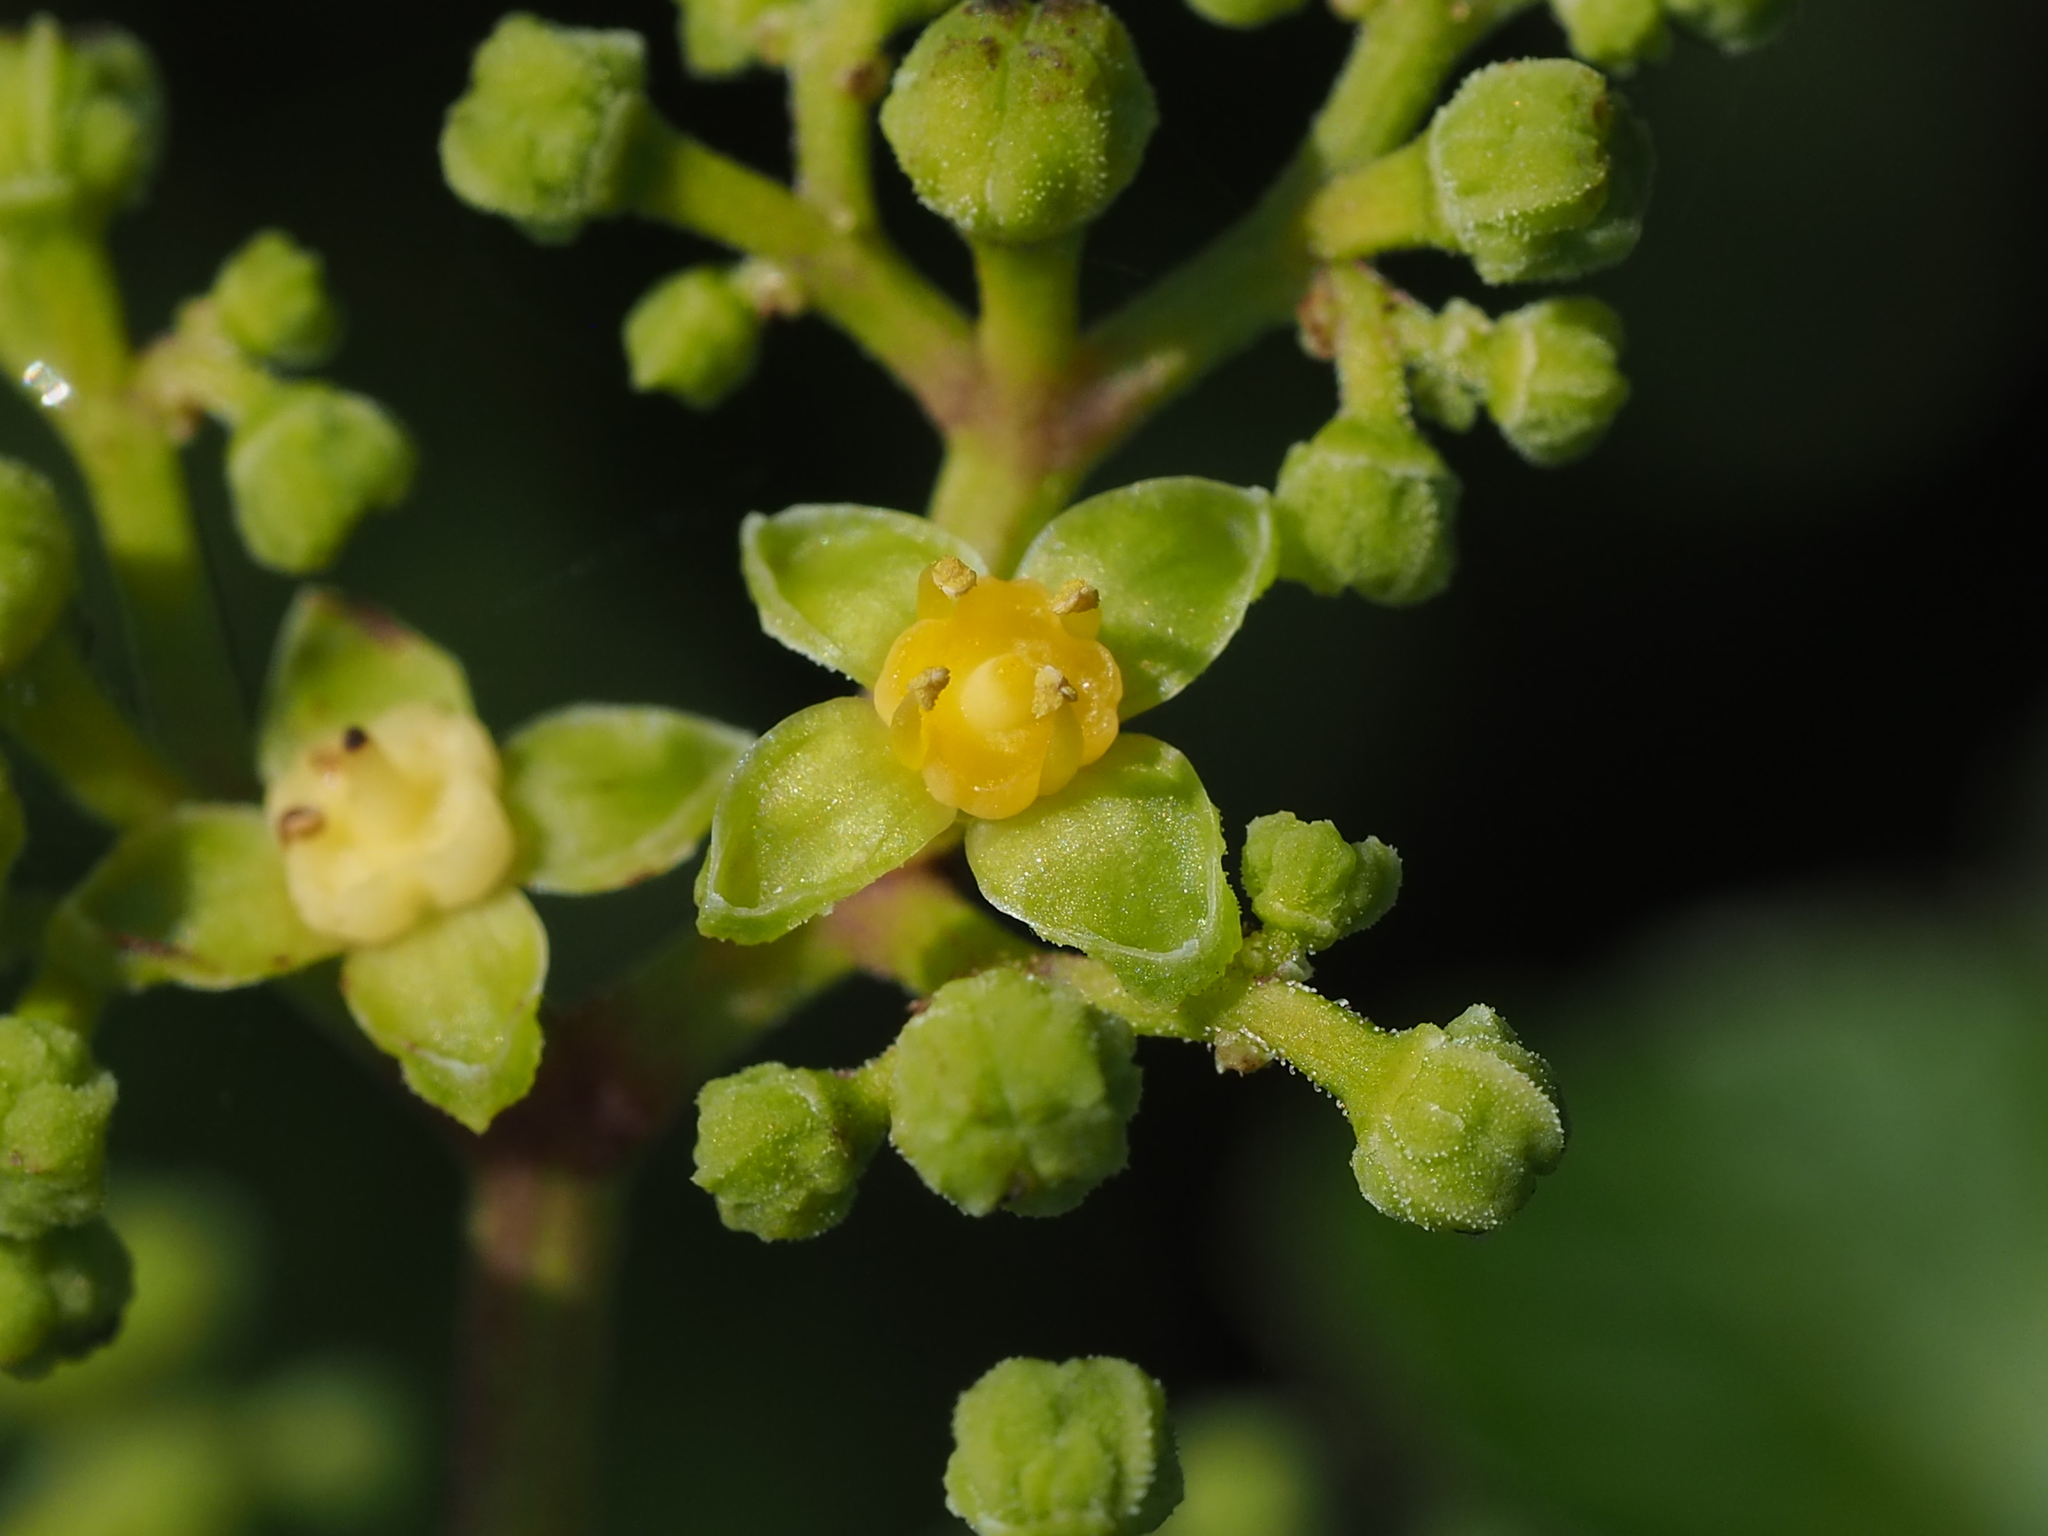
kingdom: Plantae
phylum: Tracheophyta
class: Magnoliopsida
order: Vitales
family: Vitaceae
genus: Causonis
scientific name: Causonis japonica
